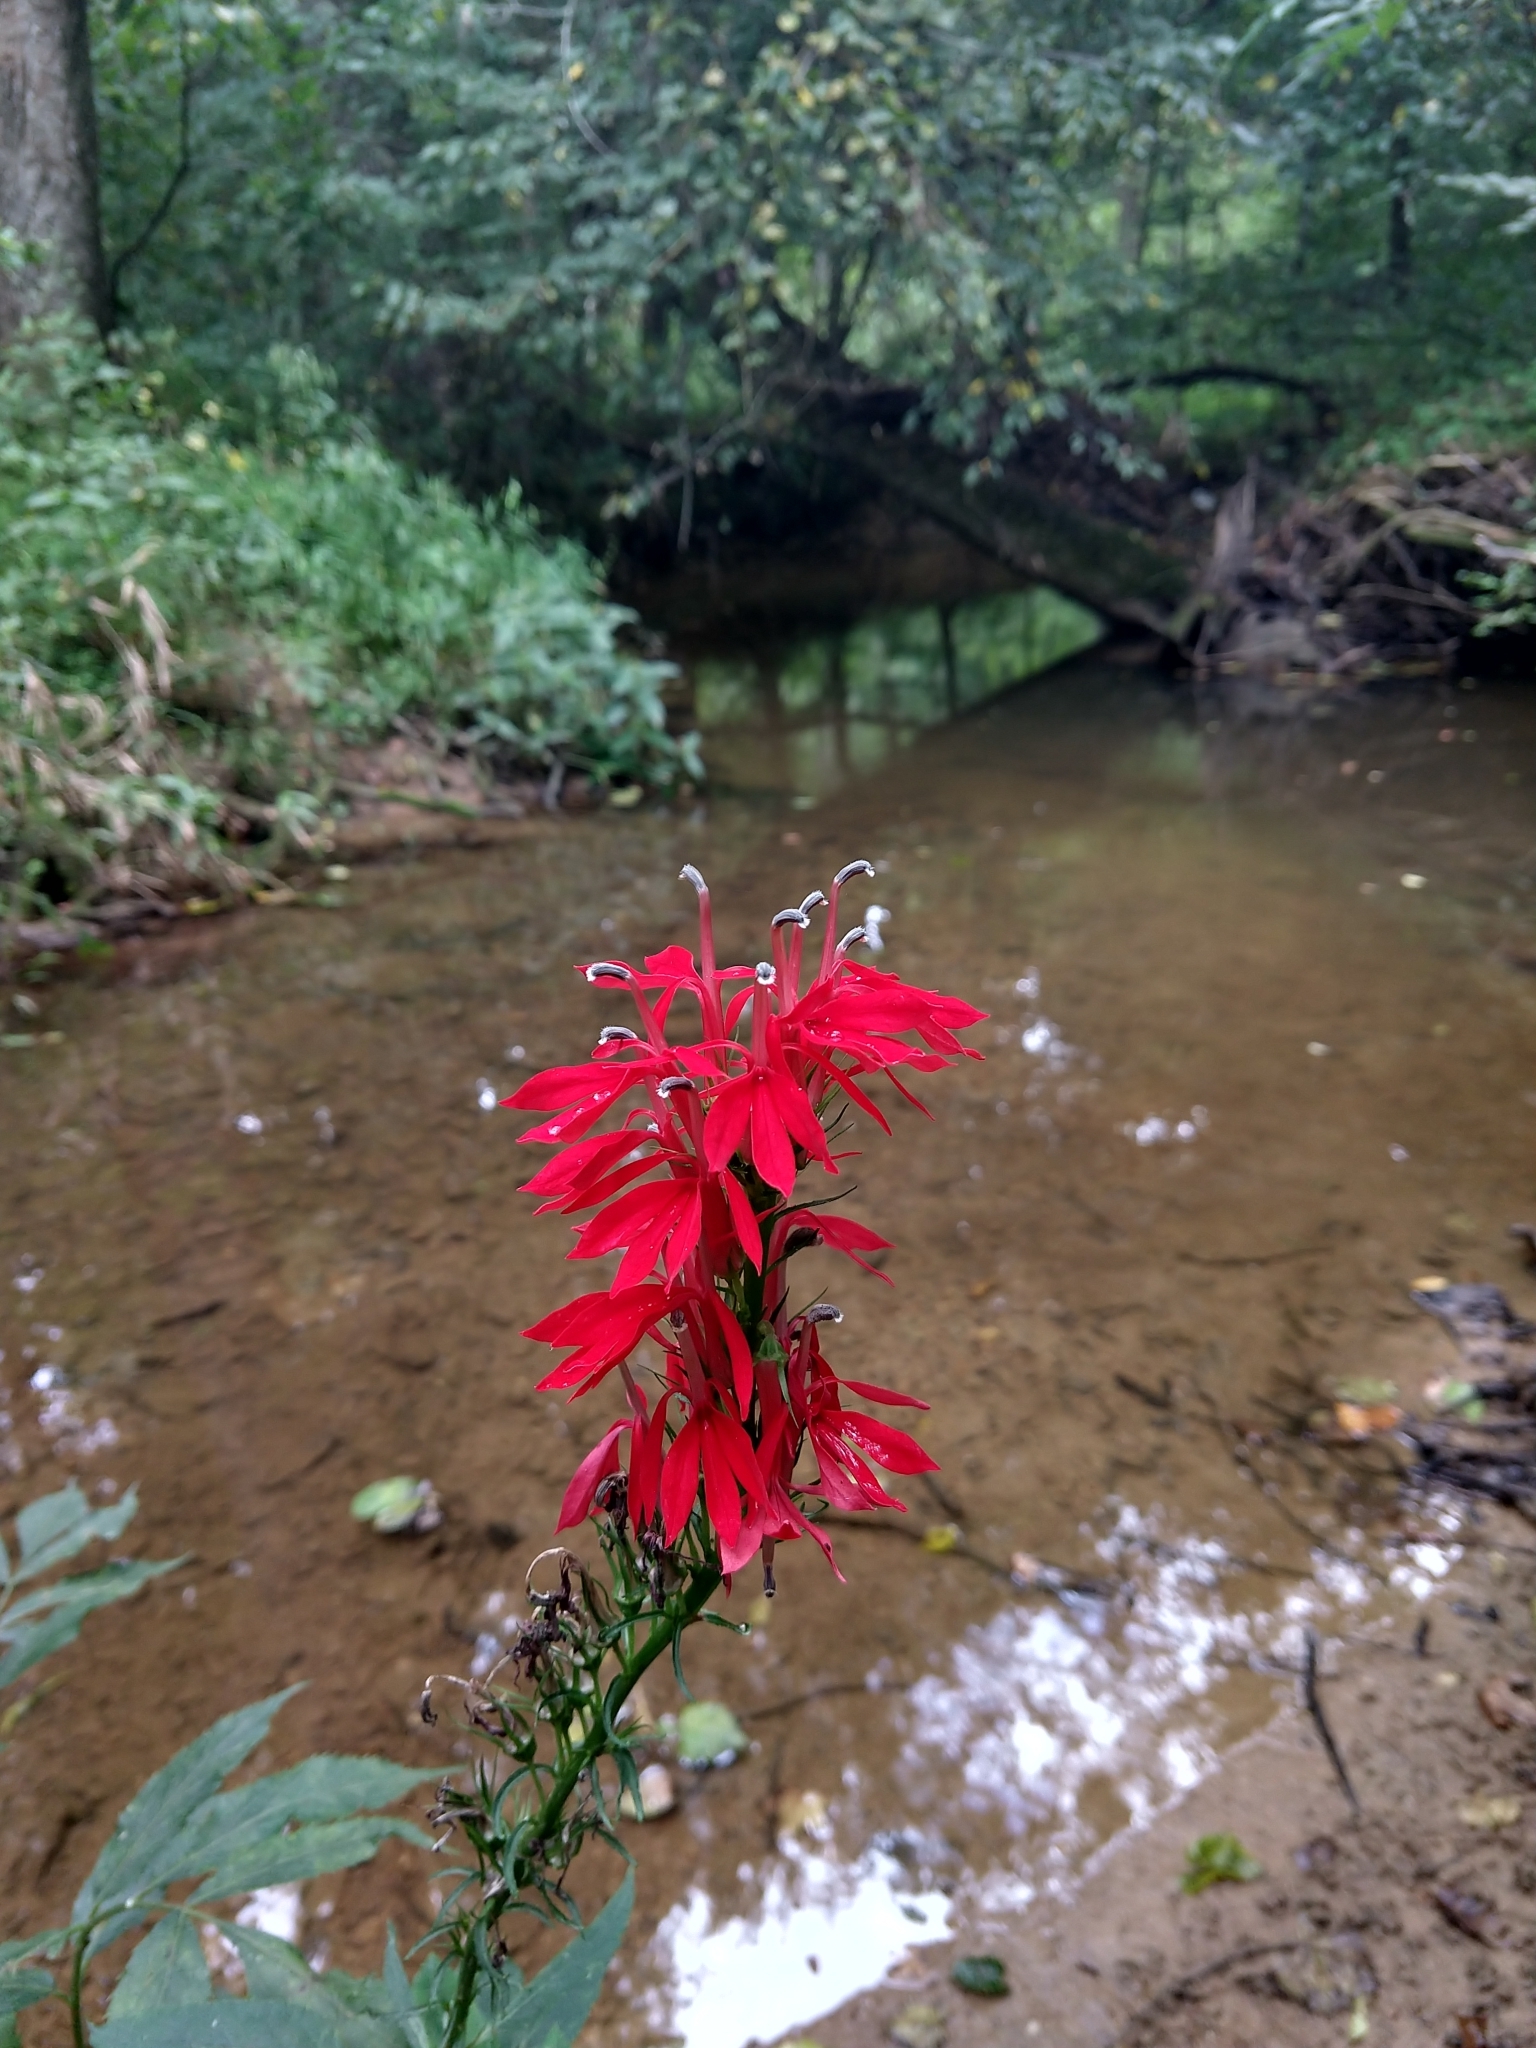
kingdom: Plantae
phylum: Tracheophyta
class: Magnoliopsida
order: Asterales
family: Campanulaceae
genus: Lobelia
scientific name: Lobelia cardinalis
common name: Cardinal flower
